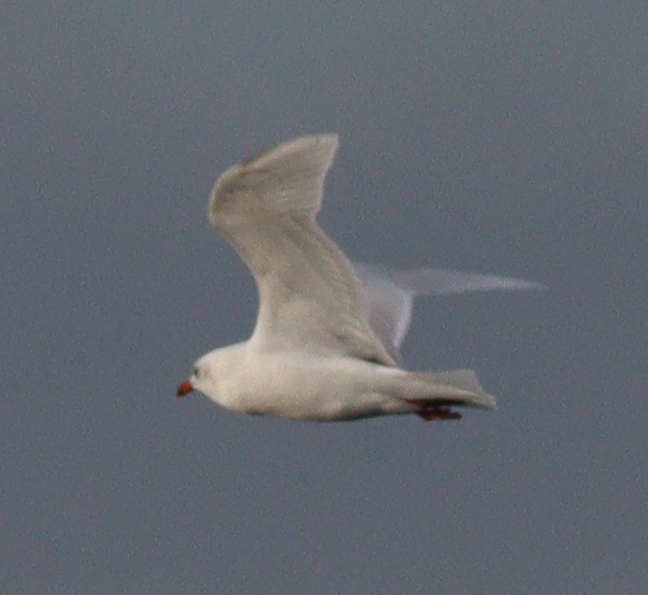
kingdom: Animalia
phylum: Chordata
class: Aves
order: Charadriiformes
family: Laridae
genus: Ichthyaetus
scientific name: Ichthyaetus melanocephalus
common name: Mediterranean gull
